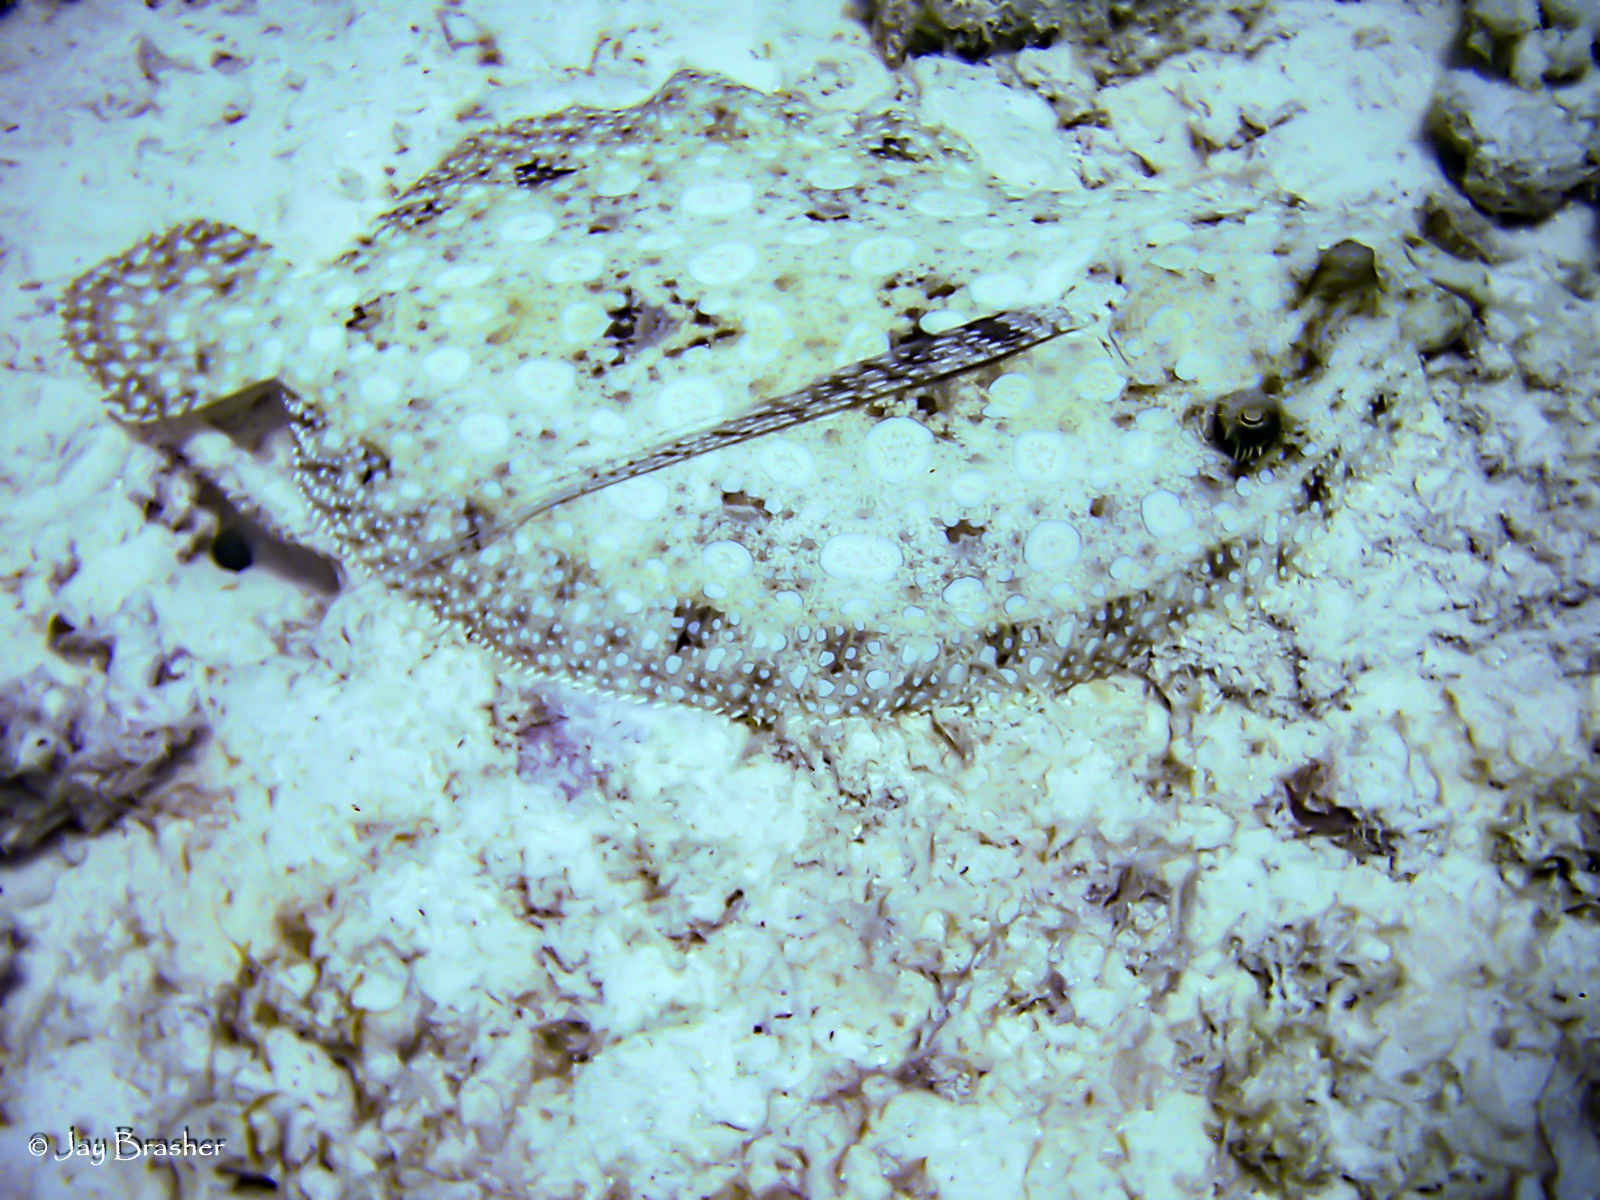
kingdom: Animalia
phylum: Chordata
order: Pleuronectiformes
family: Bothidae
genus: Bothus
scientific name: Bothus lunatus
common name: Peacock flounder
